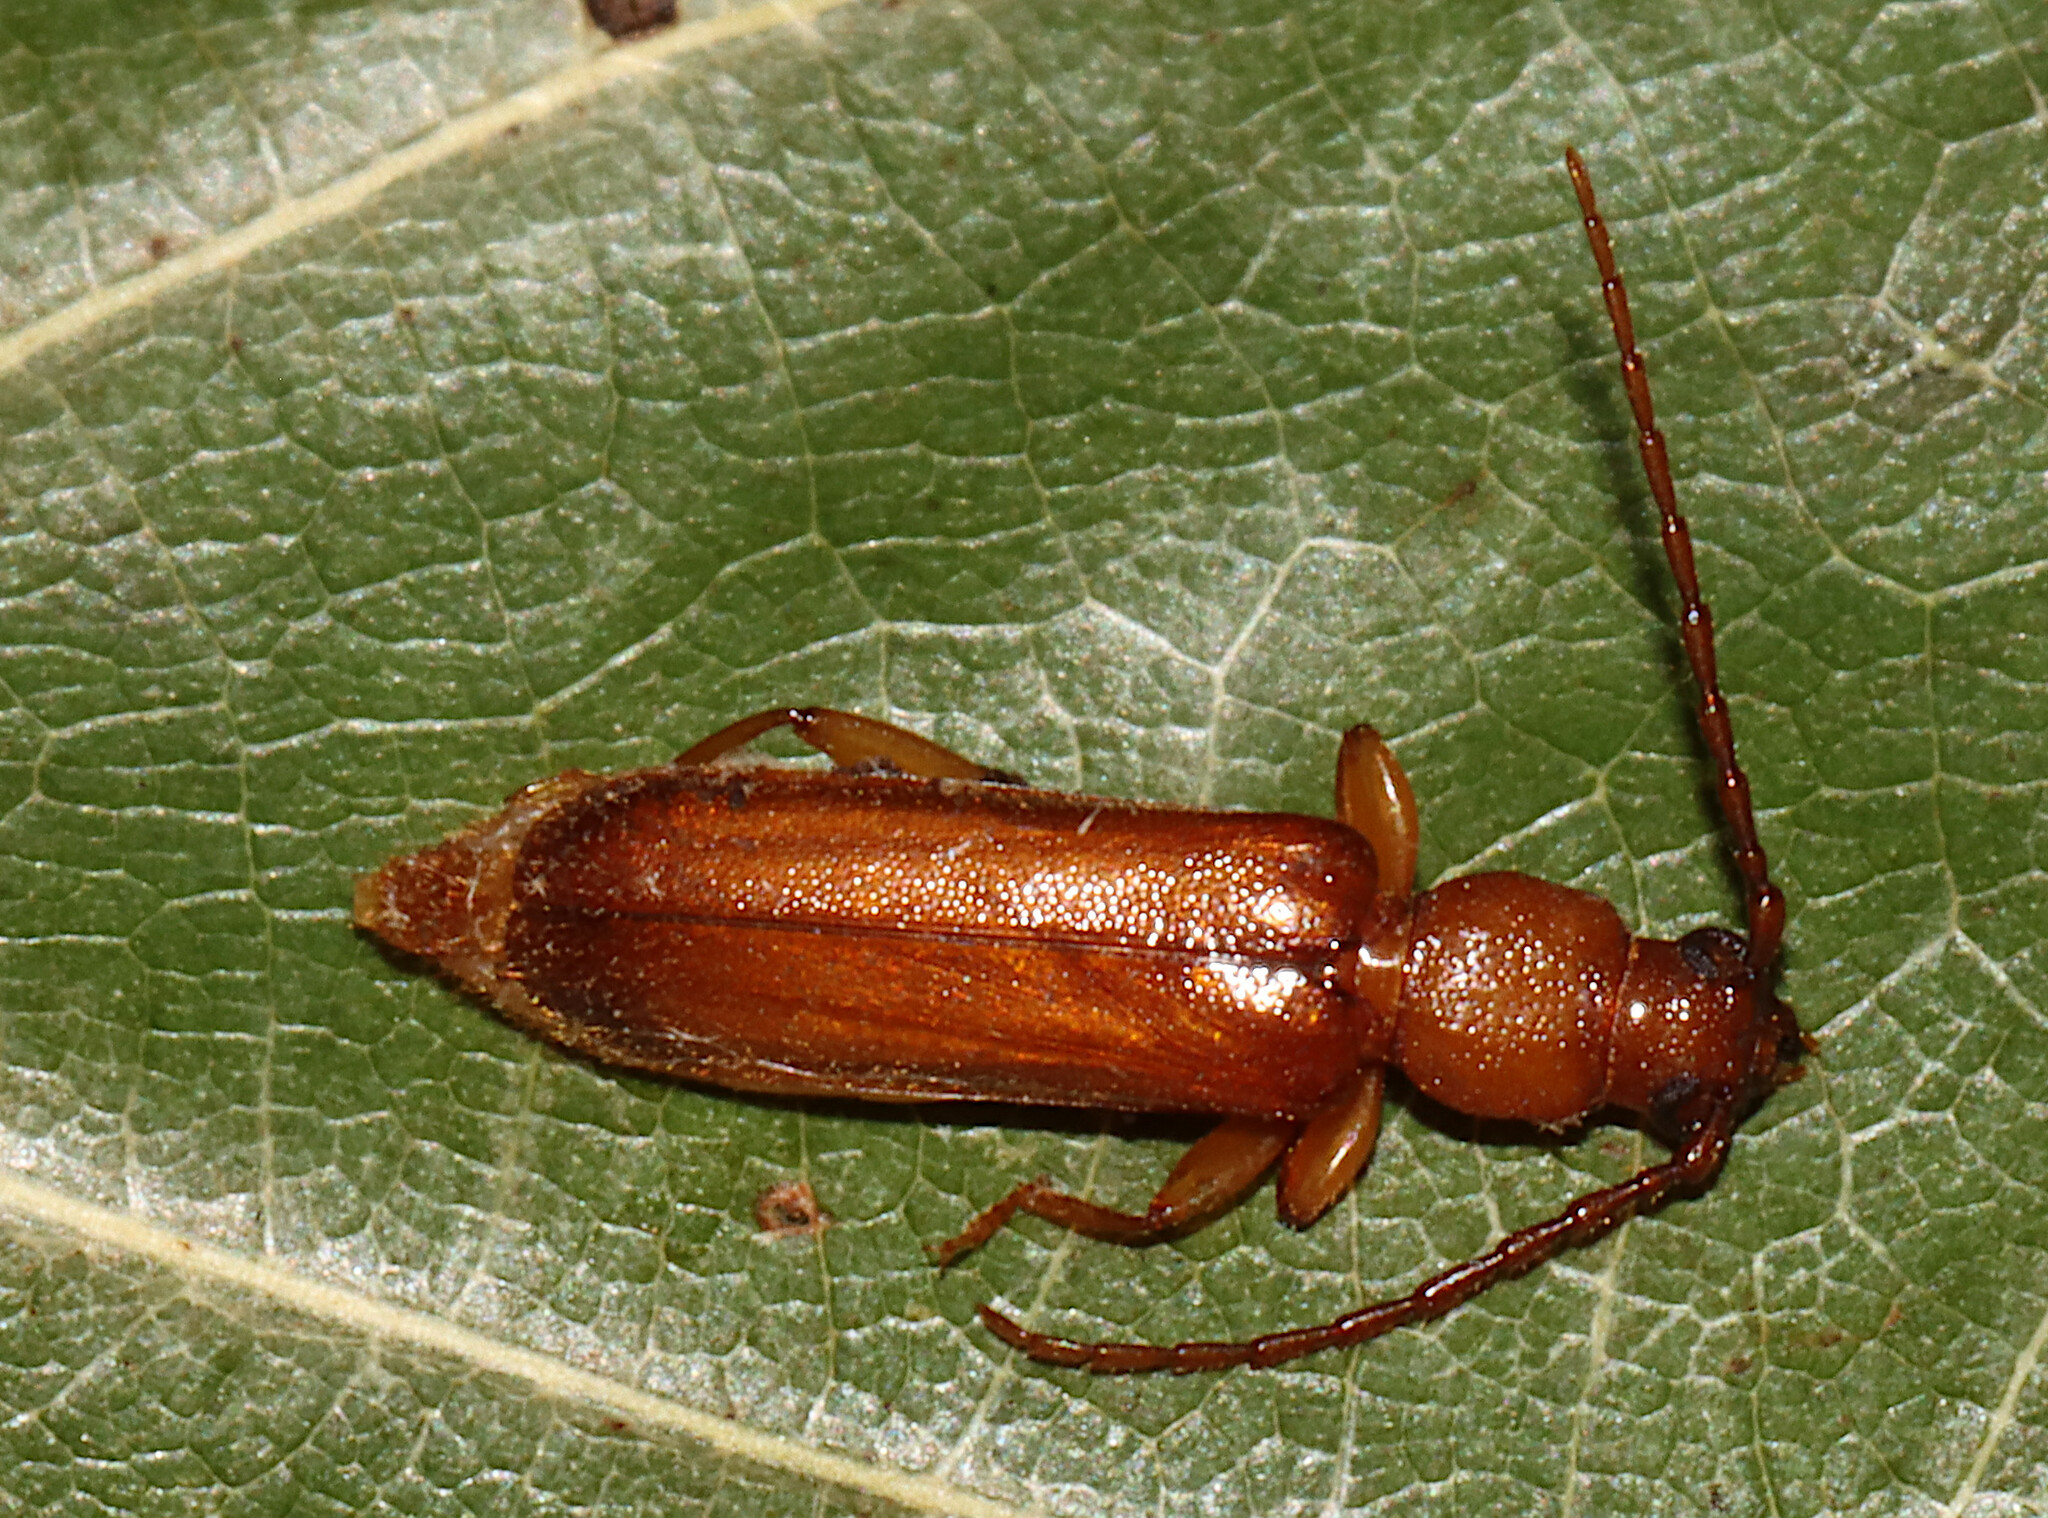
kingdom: Animalia
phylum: Arthropoda
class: Insecta
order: Coleoptera
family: Cerambycidae
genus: Smodicum
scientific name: Smodicum cucujiforme
